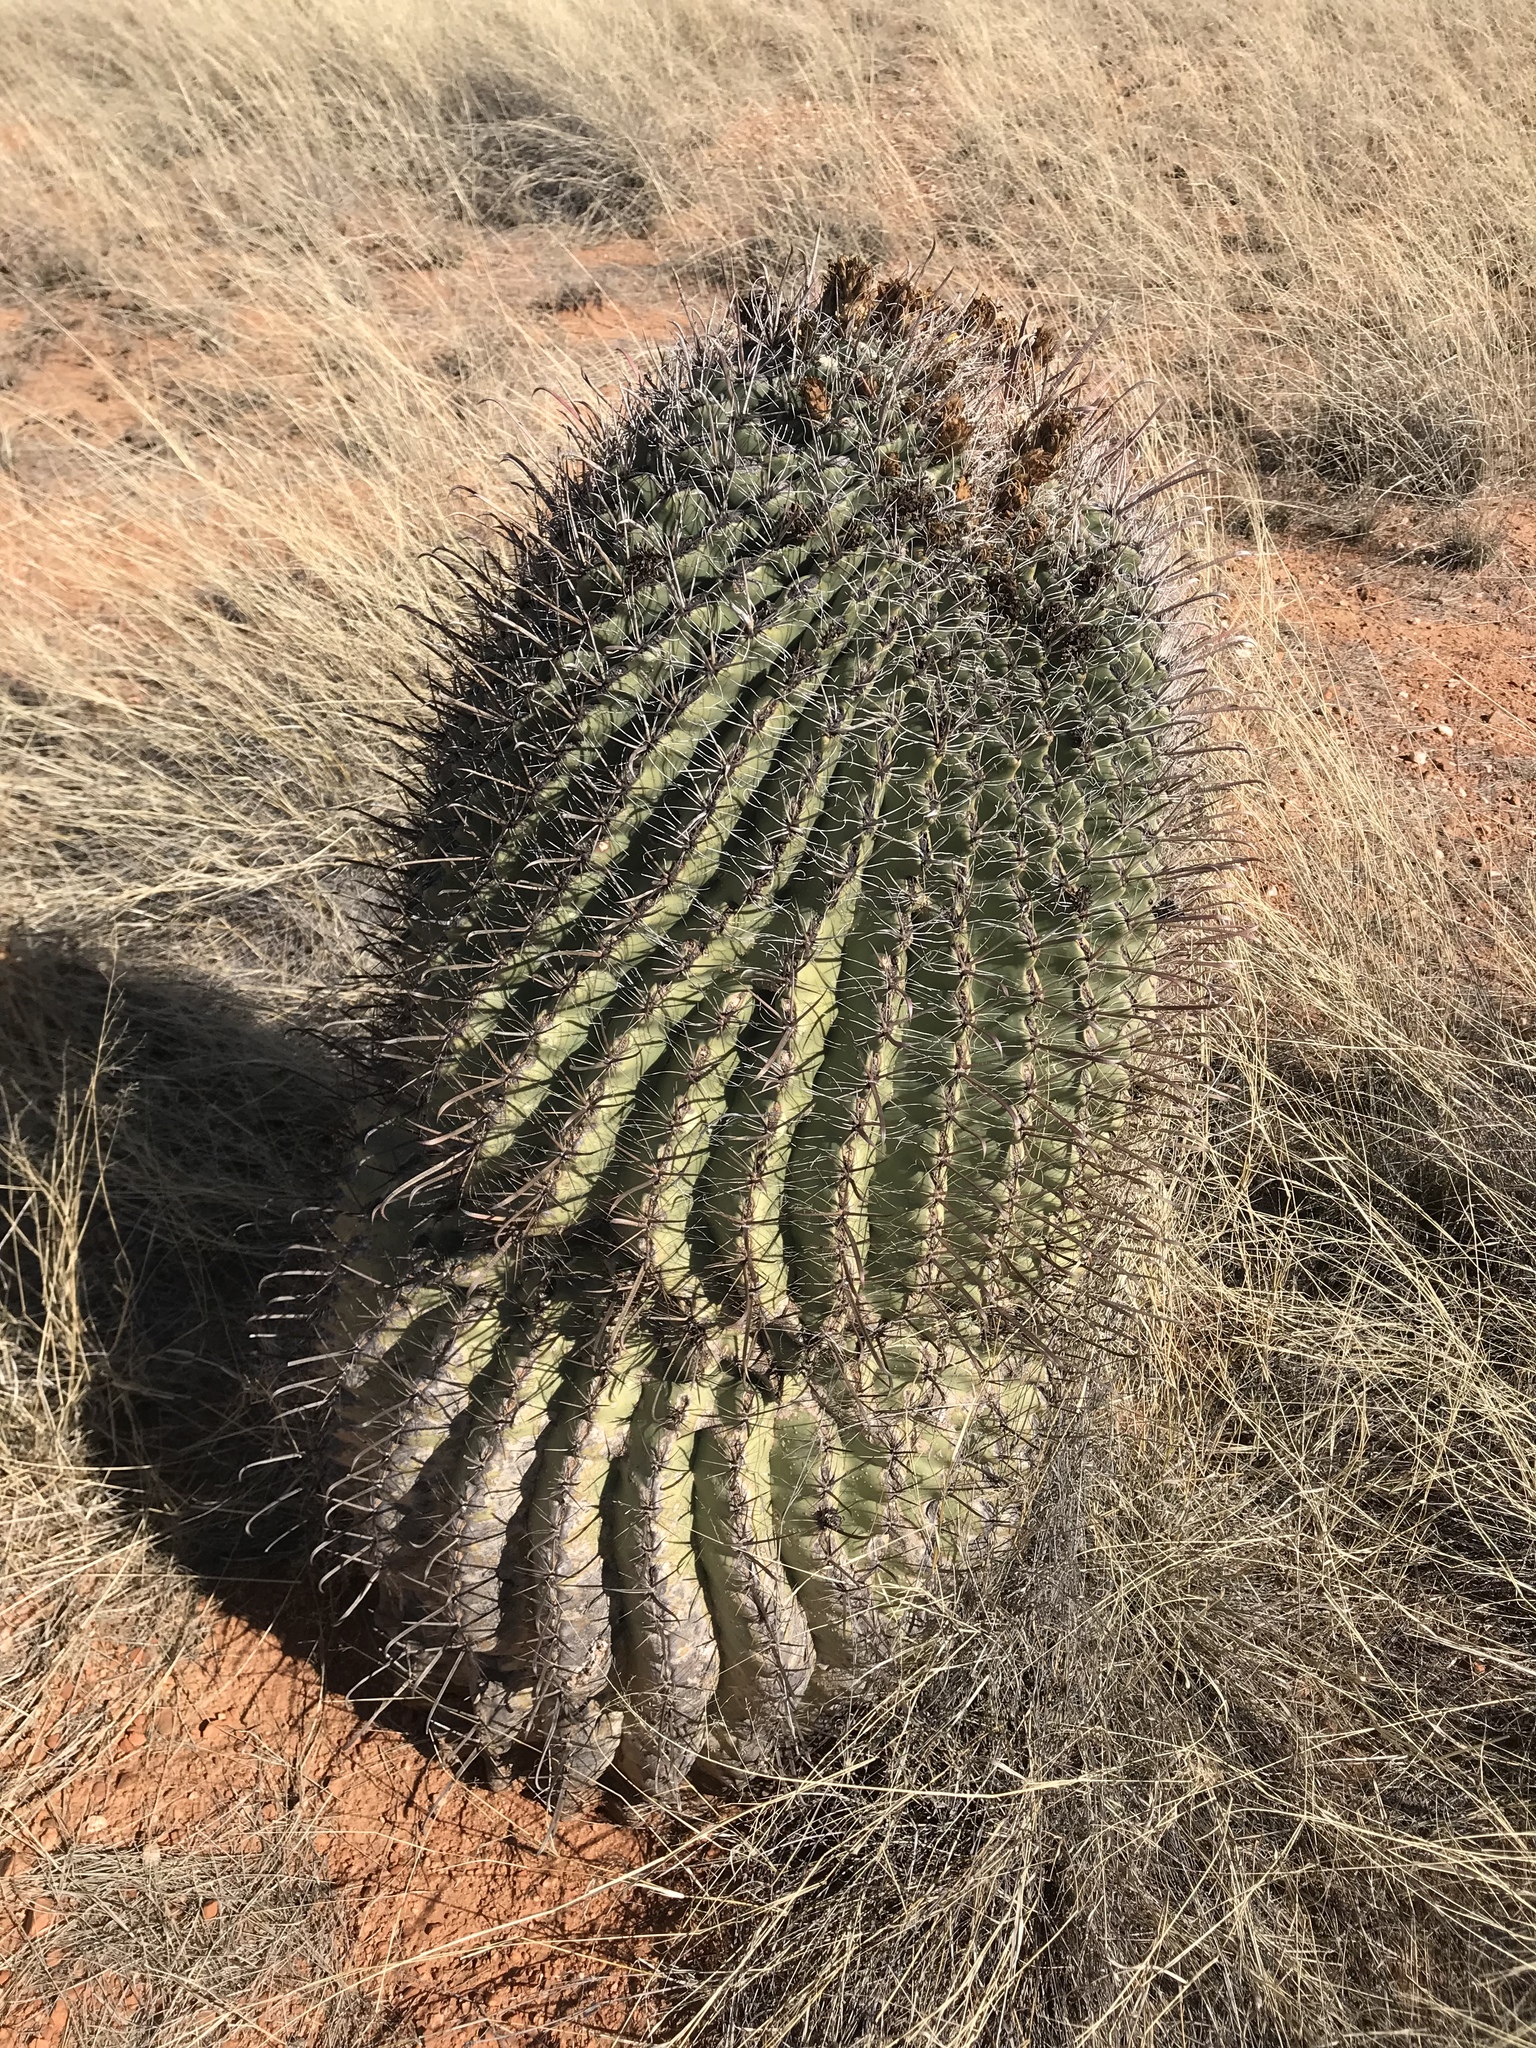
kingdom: Plantae
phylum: Tracheophyta
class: Magnoliopsida
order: Caryophyllales
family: Cactaceae
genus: Ferocactus
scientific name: Ferocactus wislizeni
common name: Candy barrel cactus
